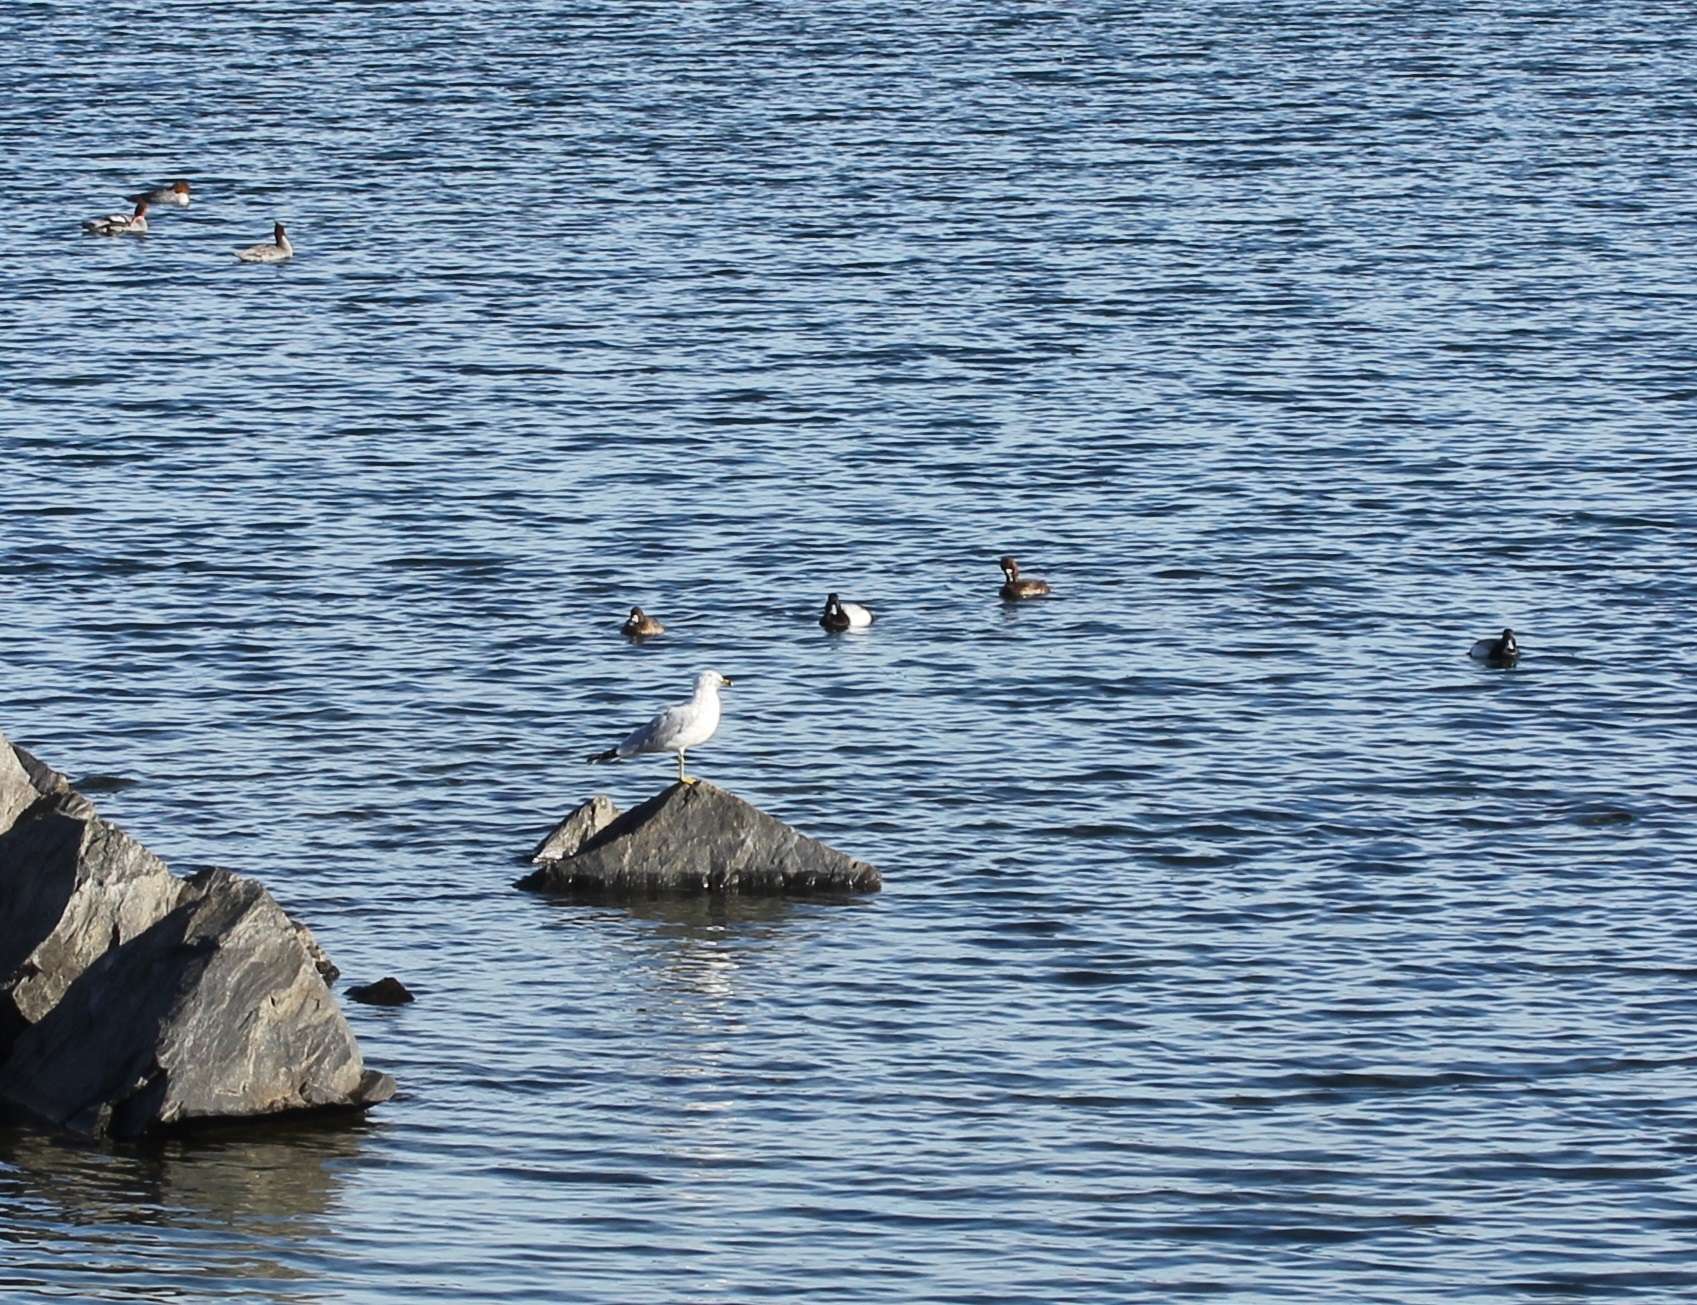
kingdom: Animalia
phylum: Chordata
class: Aves
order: Charadriiformes
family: Laridae
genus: Larus
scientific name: Larus delawarensis
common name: Ring-billed gull
